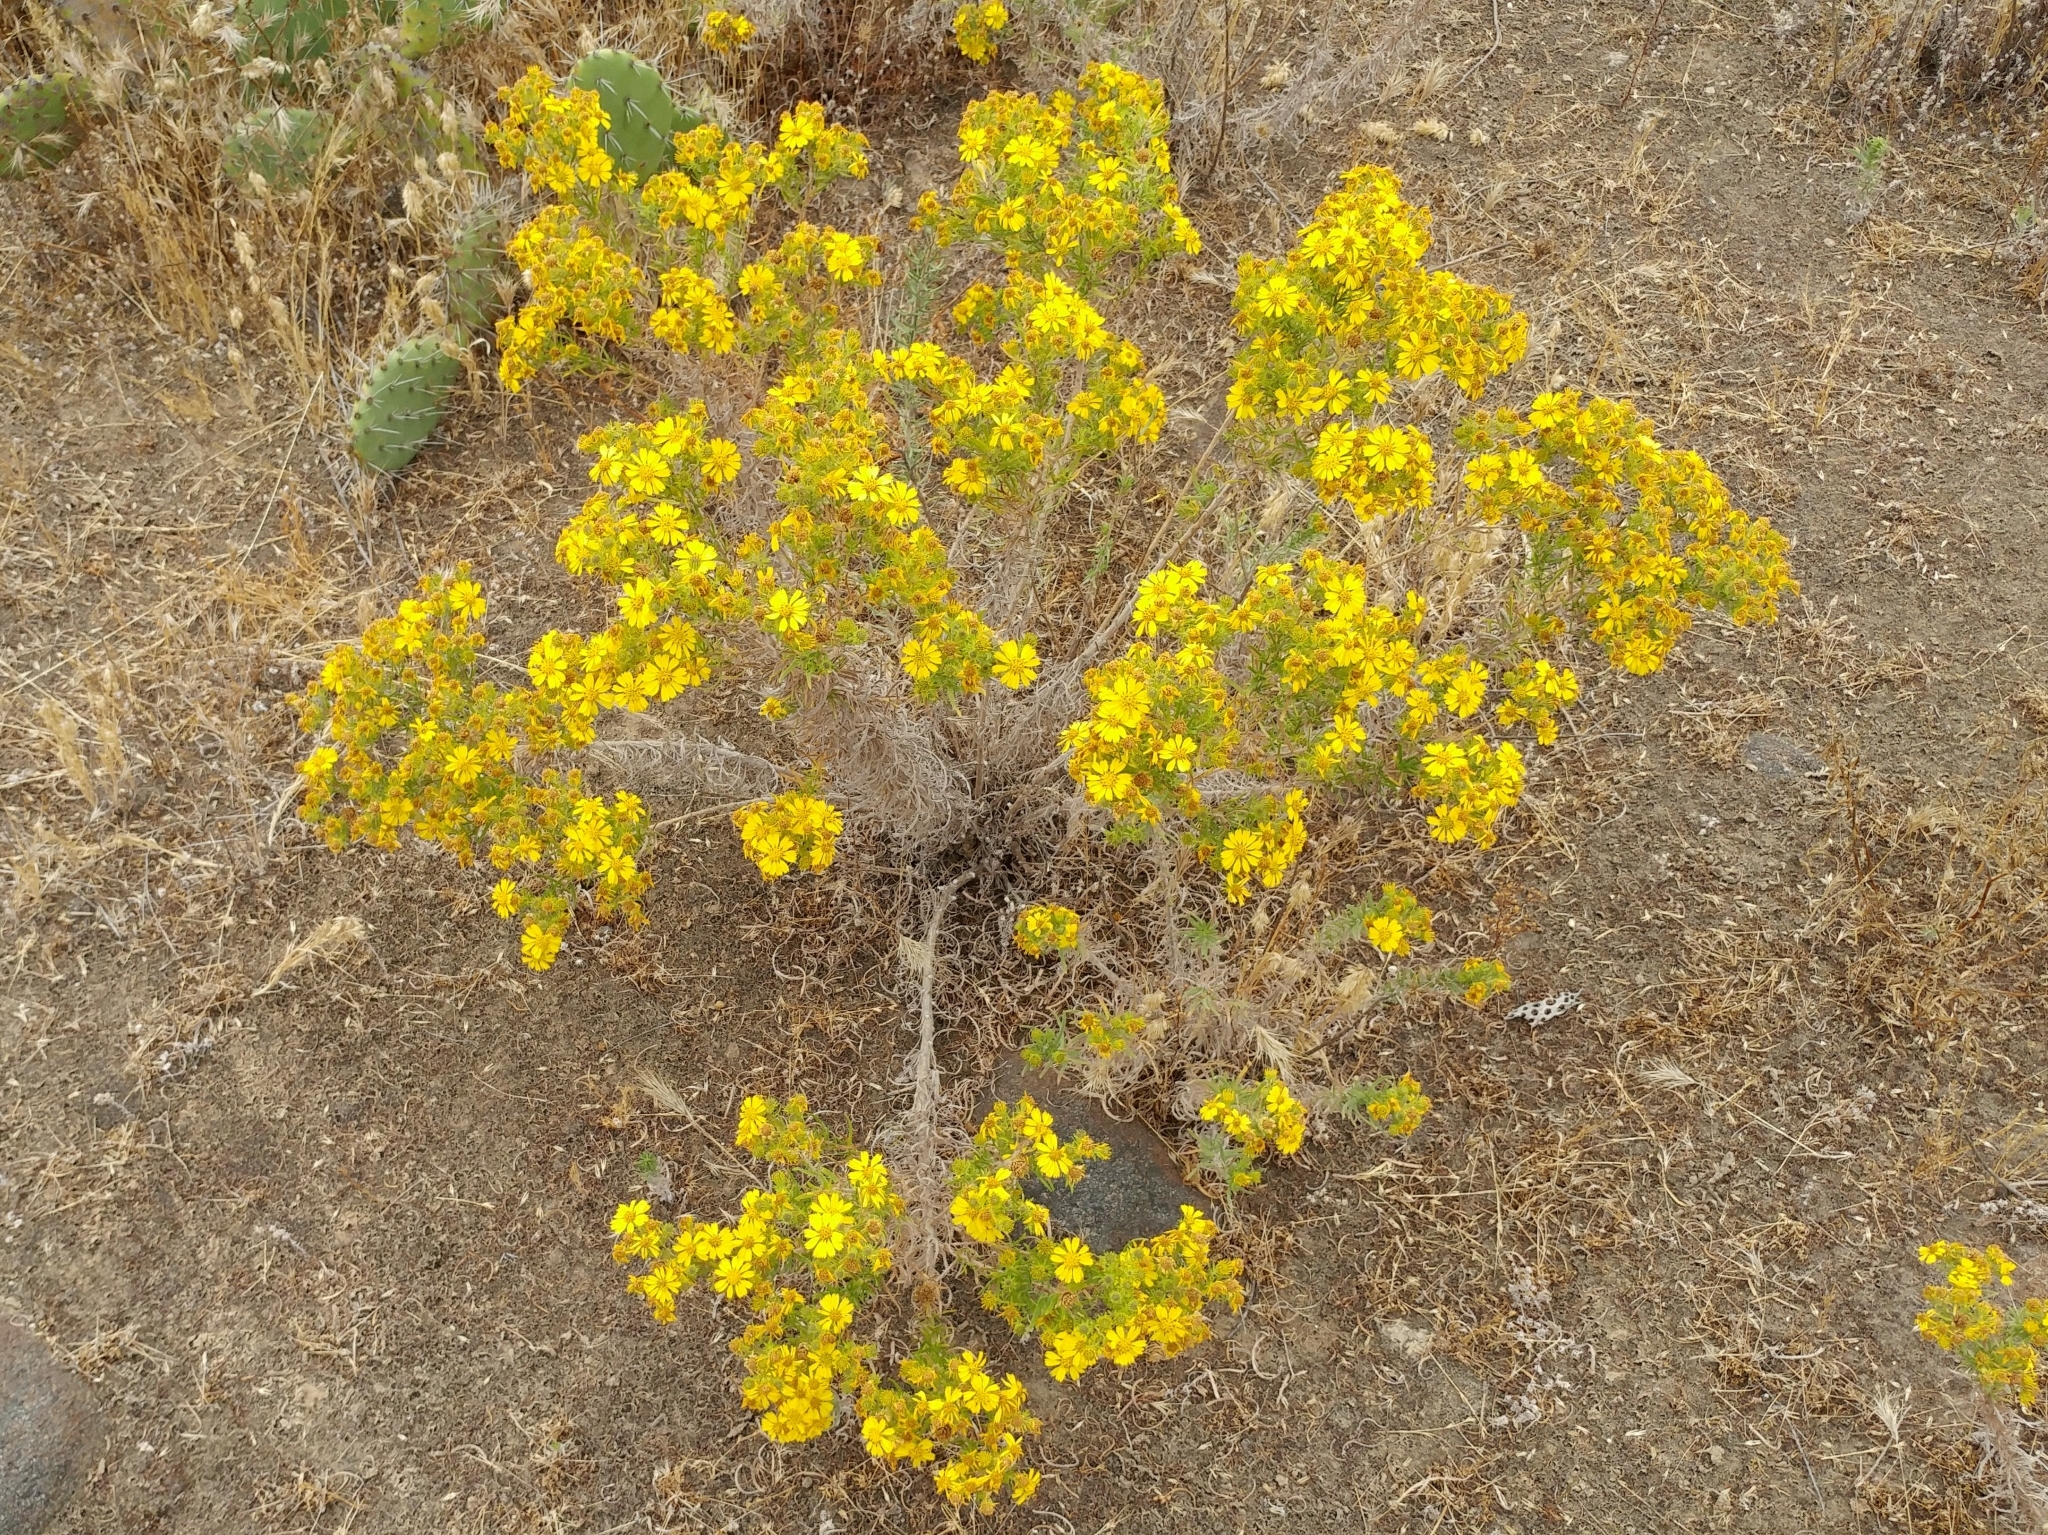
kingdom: Plantae
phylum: Tracheophyta
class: Magnoliopsida
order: Asterales
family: Asteraceae
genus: Deinandra
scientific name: Deinandra clementina
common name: Island tarplant
